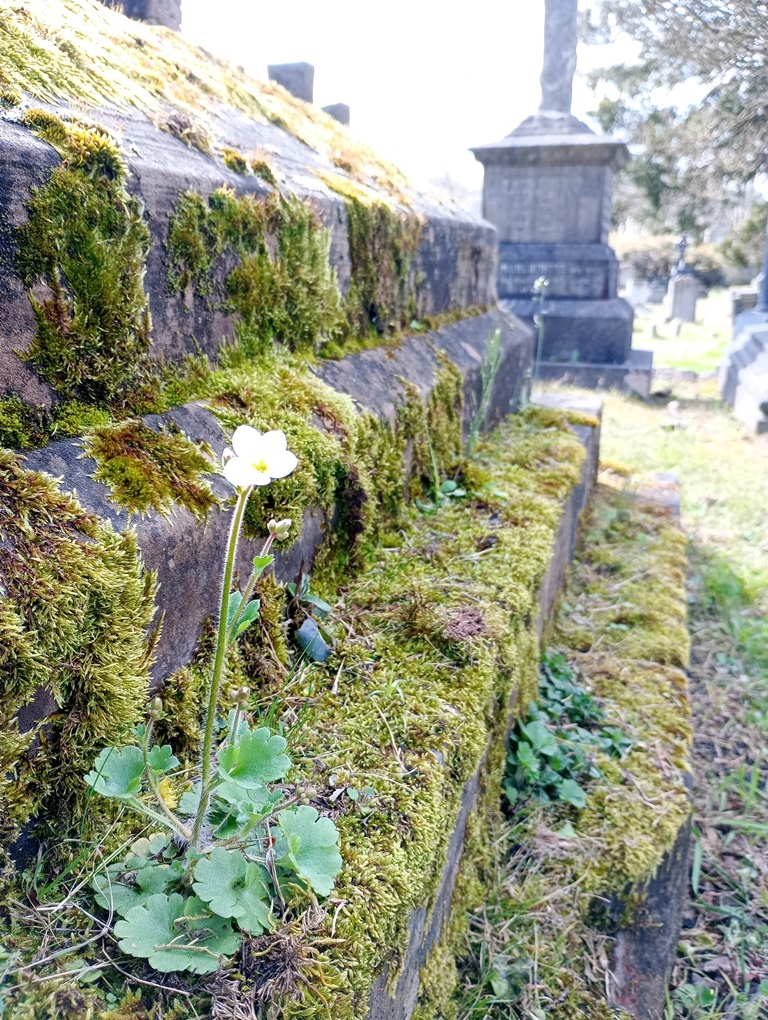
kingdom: Plantae
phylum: Tracheophyta
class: Magnoliopsida
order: Saxifragales
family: Saxifragaceae
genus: Saxifraga
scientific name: Saxifraga granulata
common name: Meadow saxifrage
